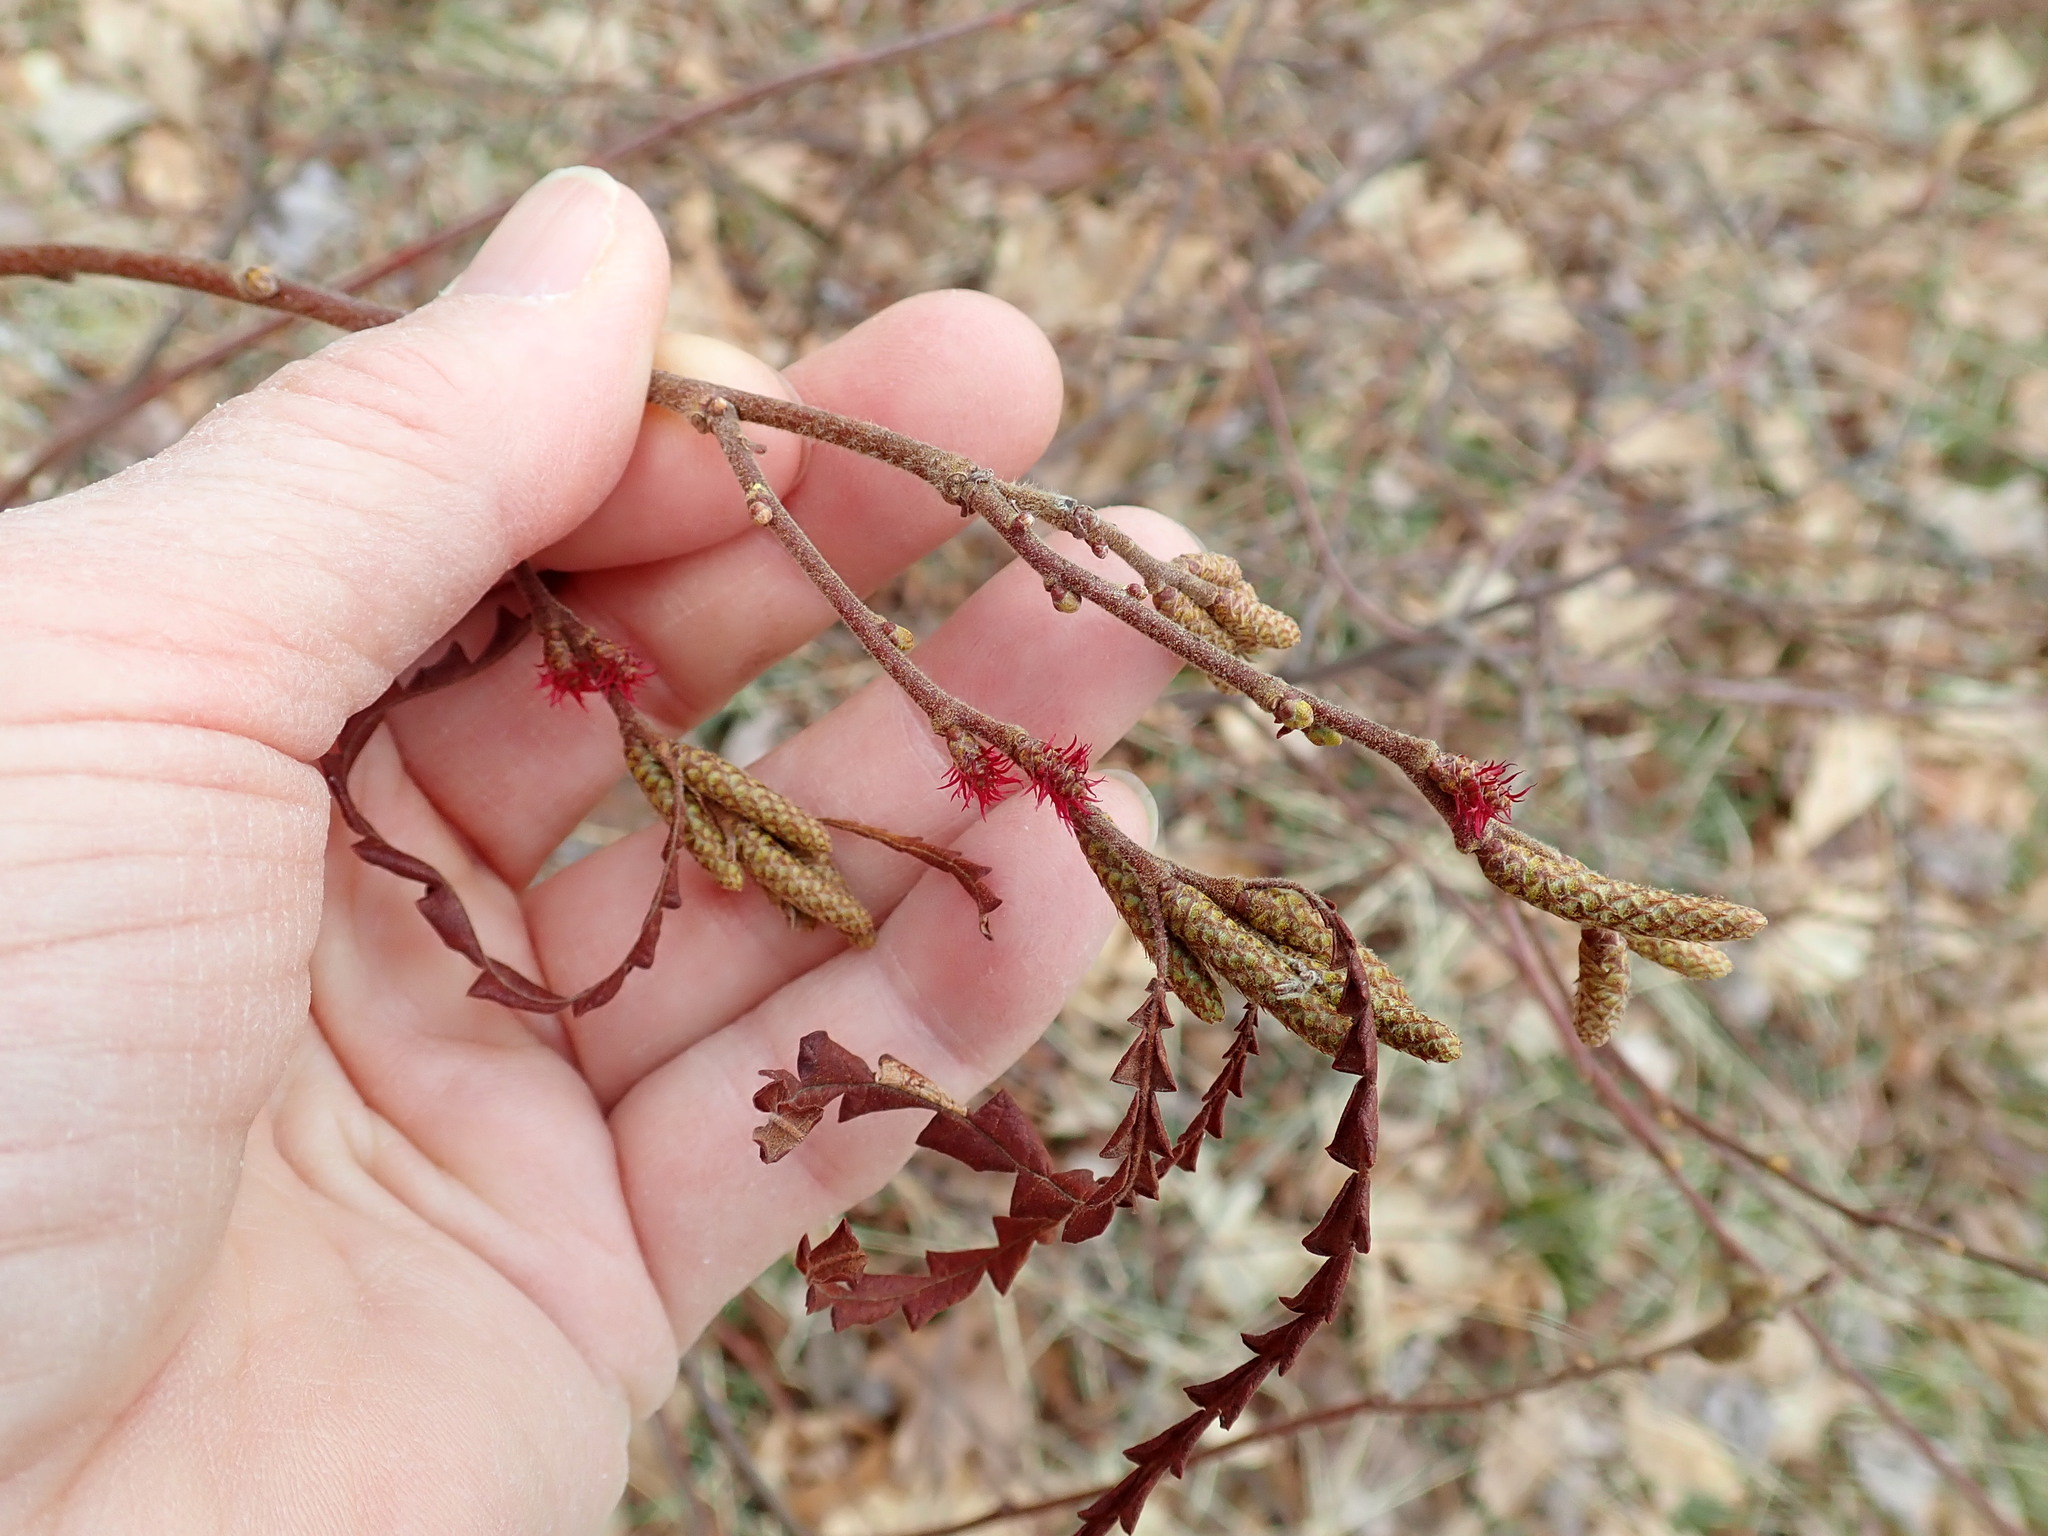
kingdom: Plantae
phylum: Tracheophyta
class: Magnoliopsida
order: Fagales
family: Myricaceae
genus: Comptonia
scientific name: Comptonia peregrina
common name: Sweet-fern
